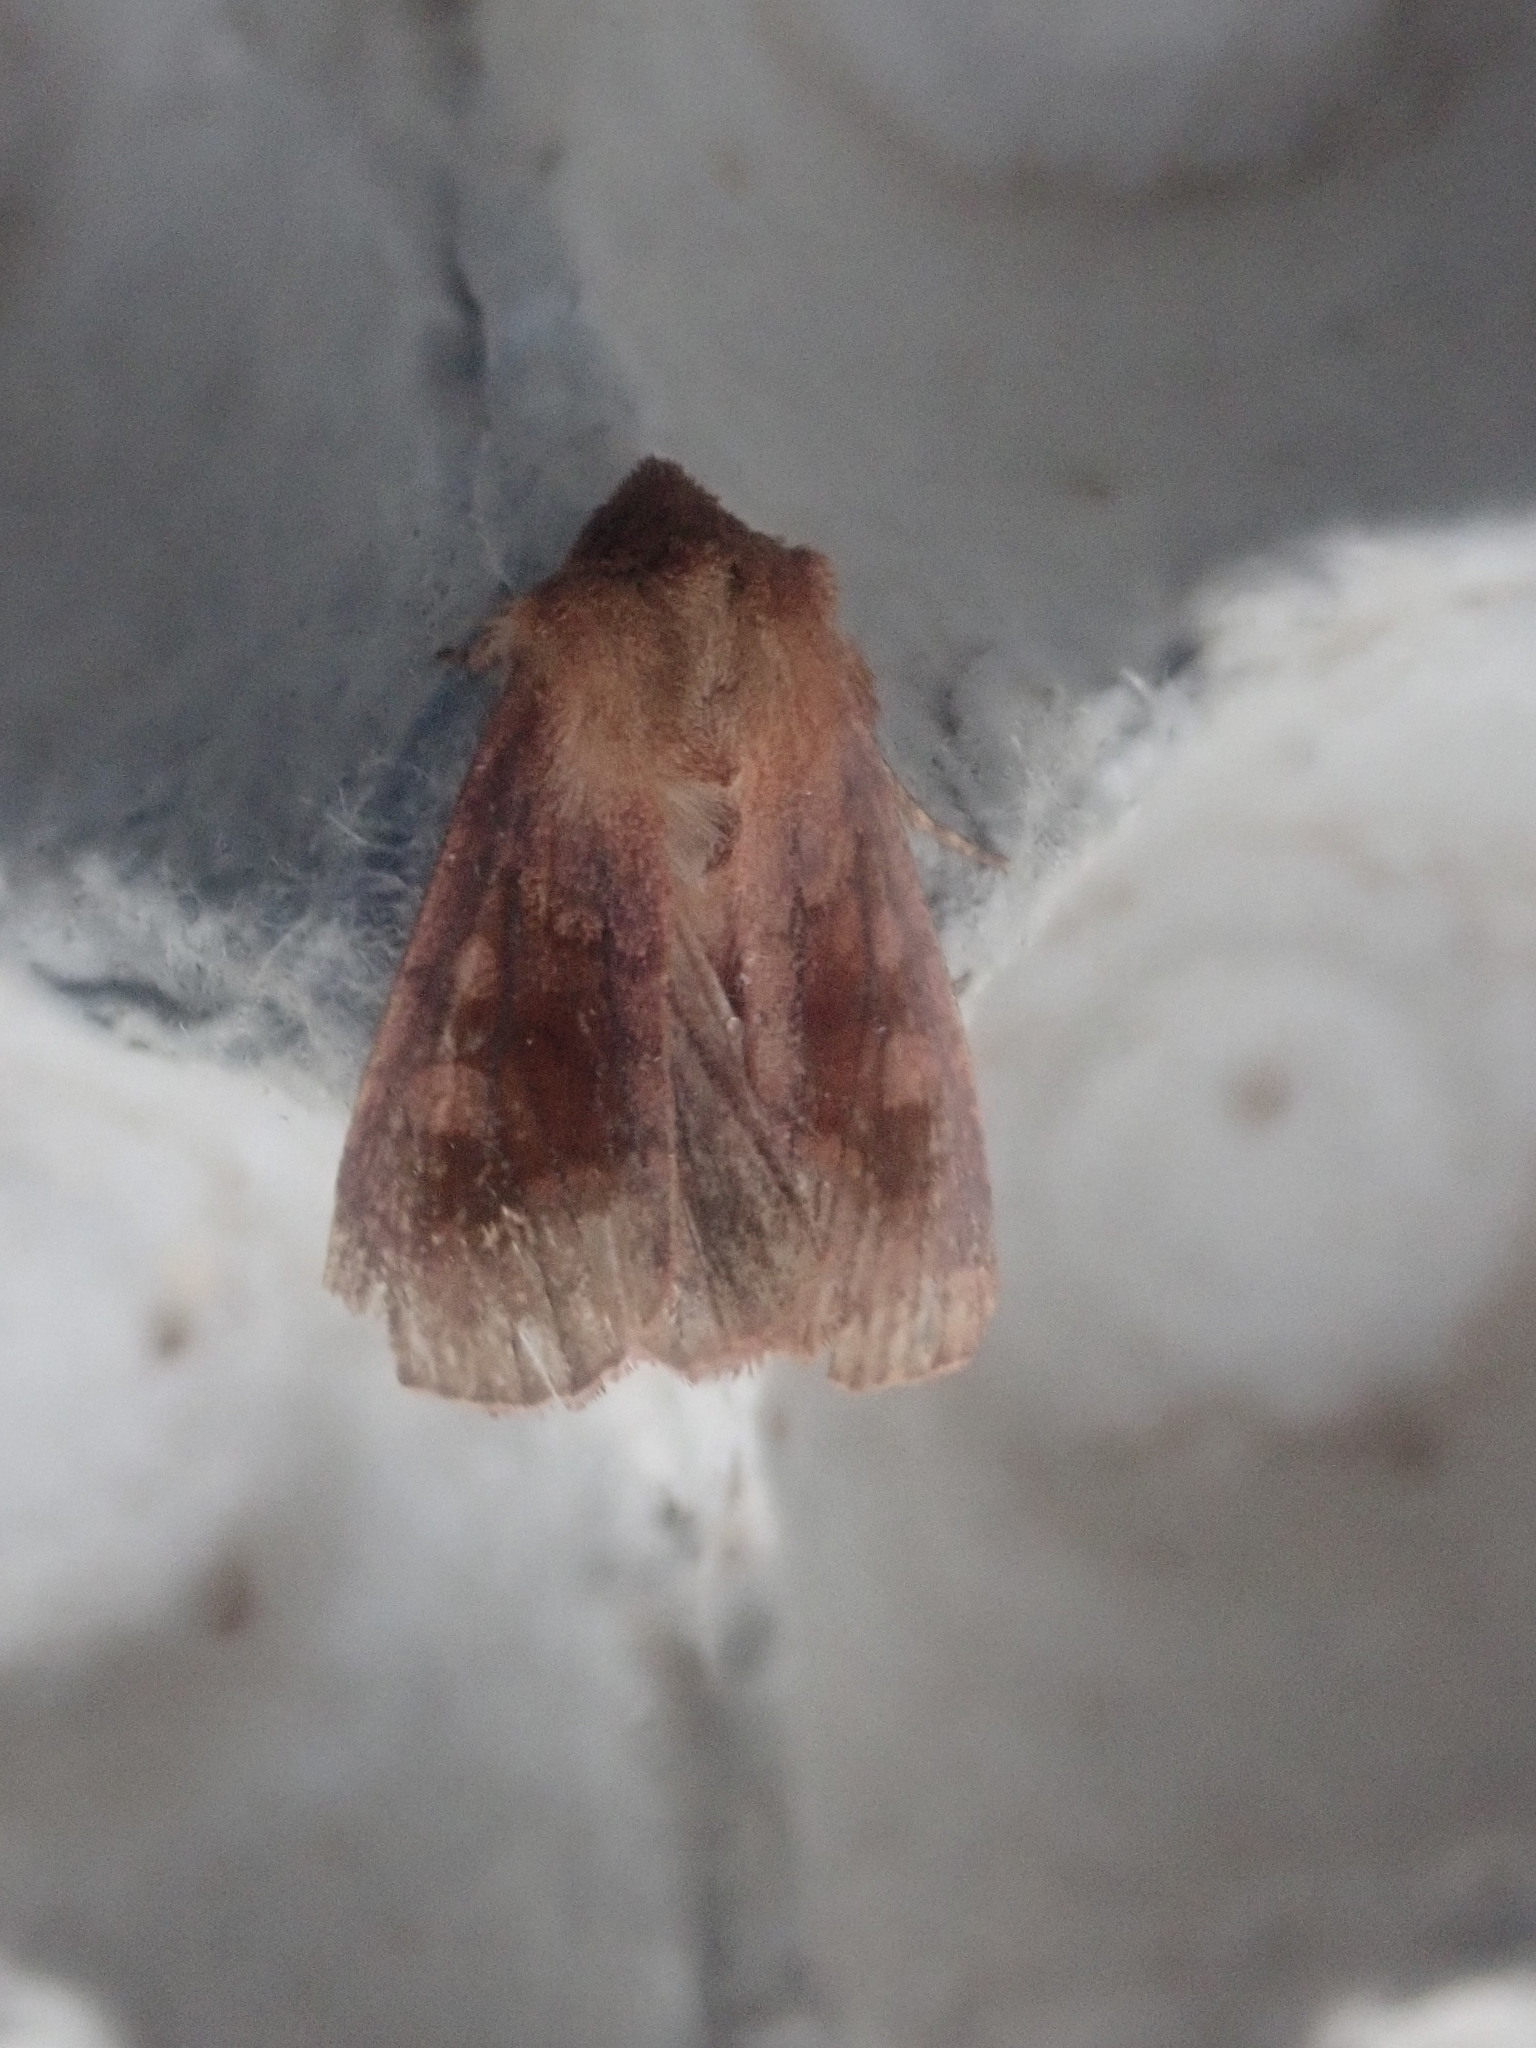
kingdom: Animalia
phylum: Arthropoda
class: Insecta
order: Lepidoptera
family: Noctuidae
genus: Nephelodes
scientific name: Nephelodes minians
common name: Bronzed cutworm
